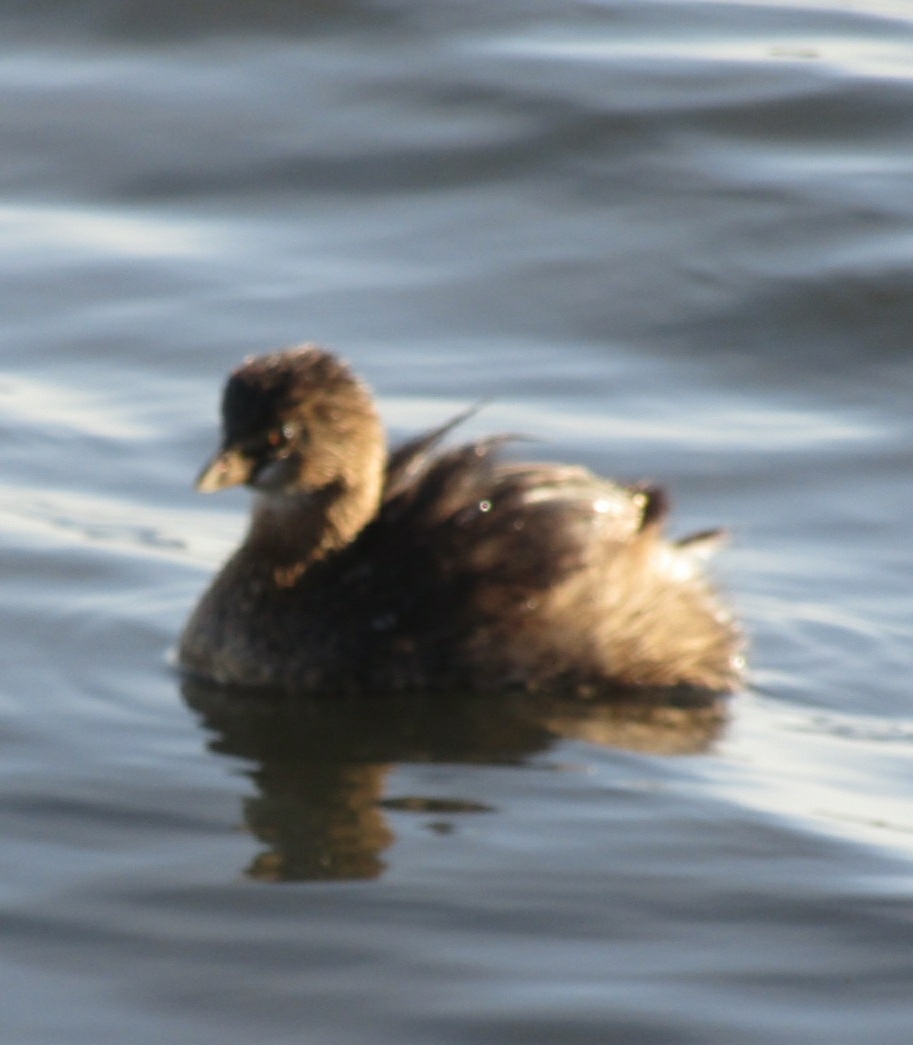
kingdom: Animalia
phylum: Chordata
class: Aves
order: Podicipediformes
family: Podicipedidae
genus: Podilymbus
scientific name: Podilymbus podiceps
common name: Pied-billed grebe
